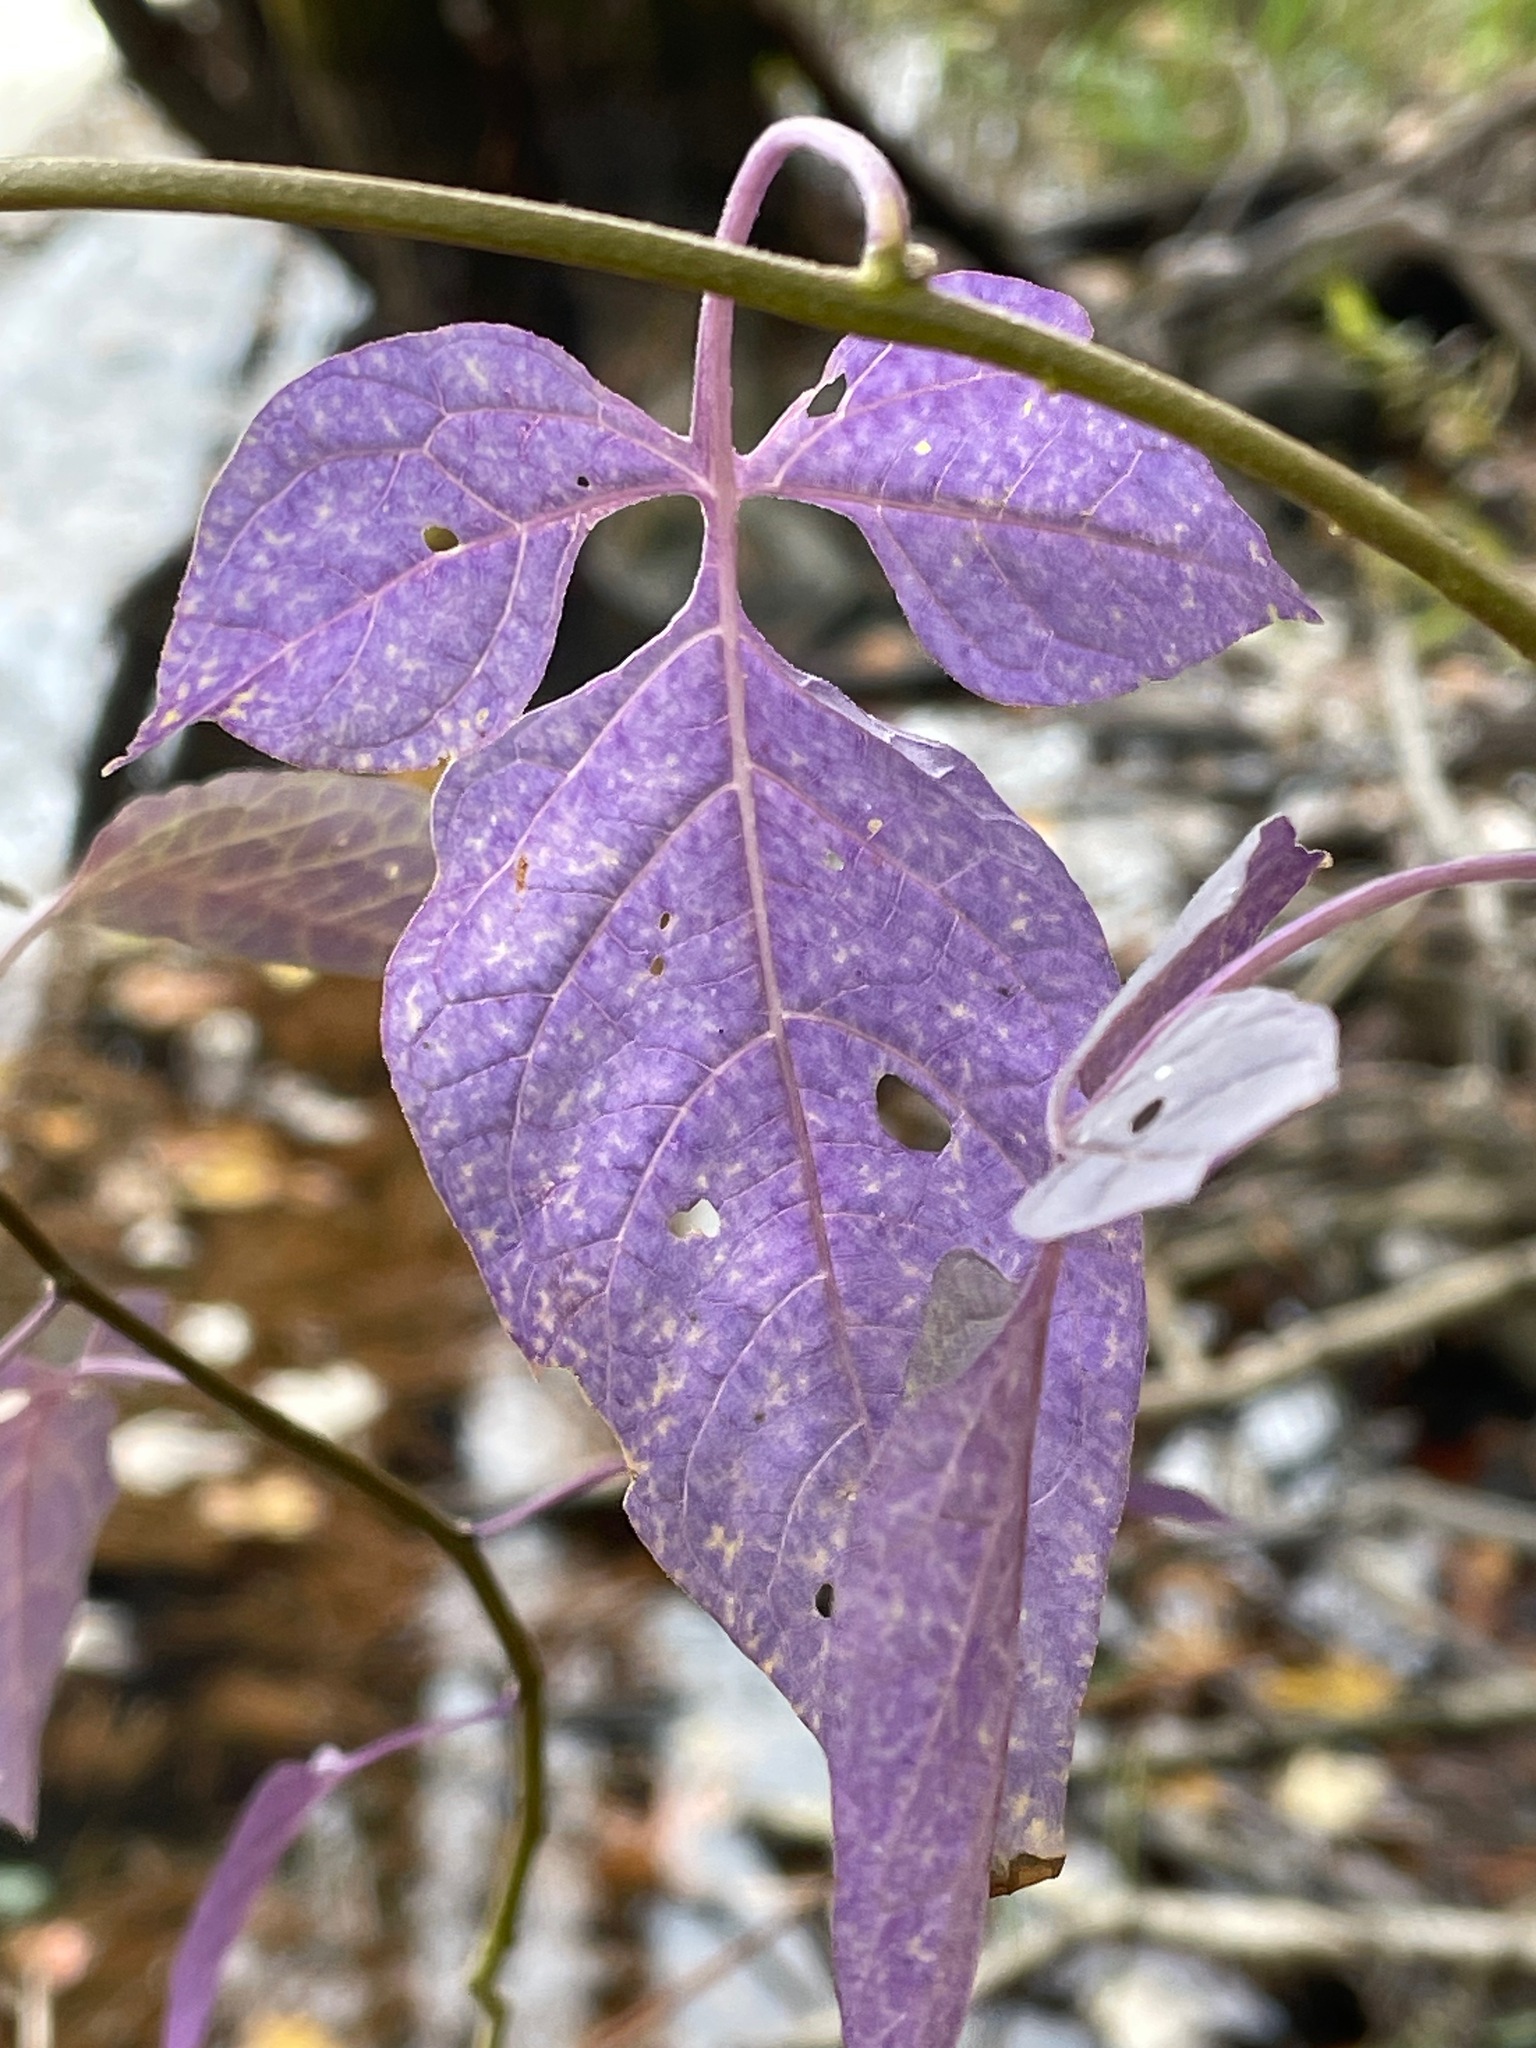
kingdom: Plantae
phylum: Tracheophyta
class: Magnoliopsida
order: Solanales
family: Solanaceae
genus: Solanum
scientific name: Solanum dulcamara
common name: Climbing nightshade
